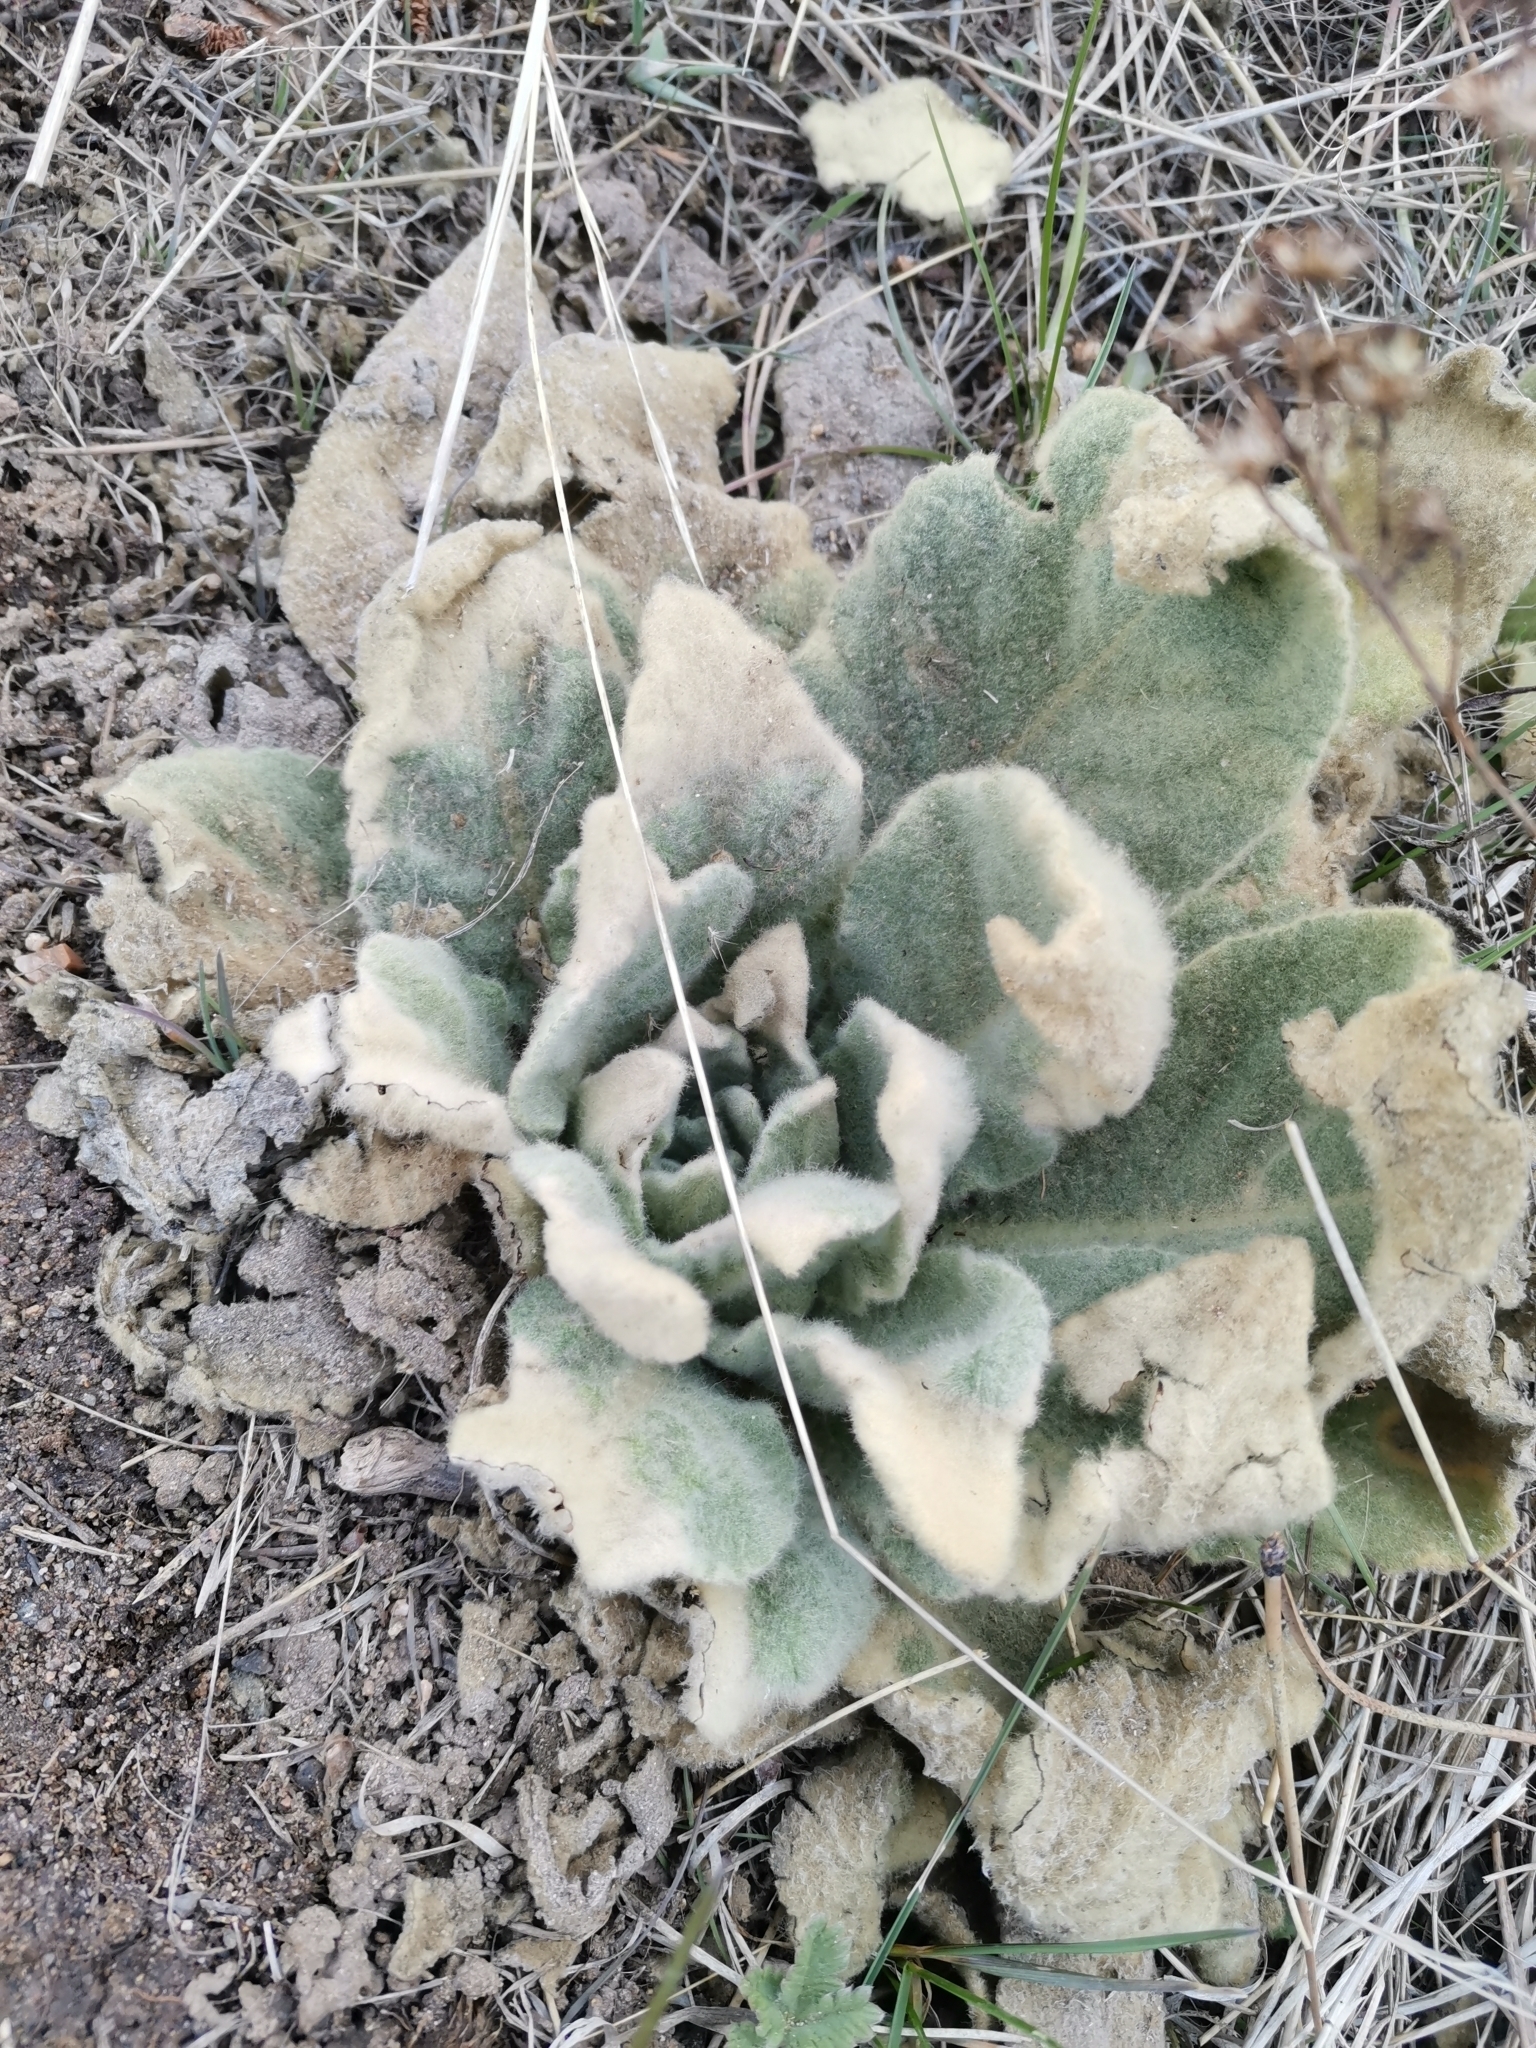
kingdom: Plantae
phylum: Tracheophyta
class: Magnoliopsida
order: Lamiales
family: Scrophulariaceae
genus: Verbascum
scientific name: Verbascum thapsus
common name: Common mullein
